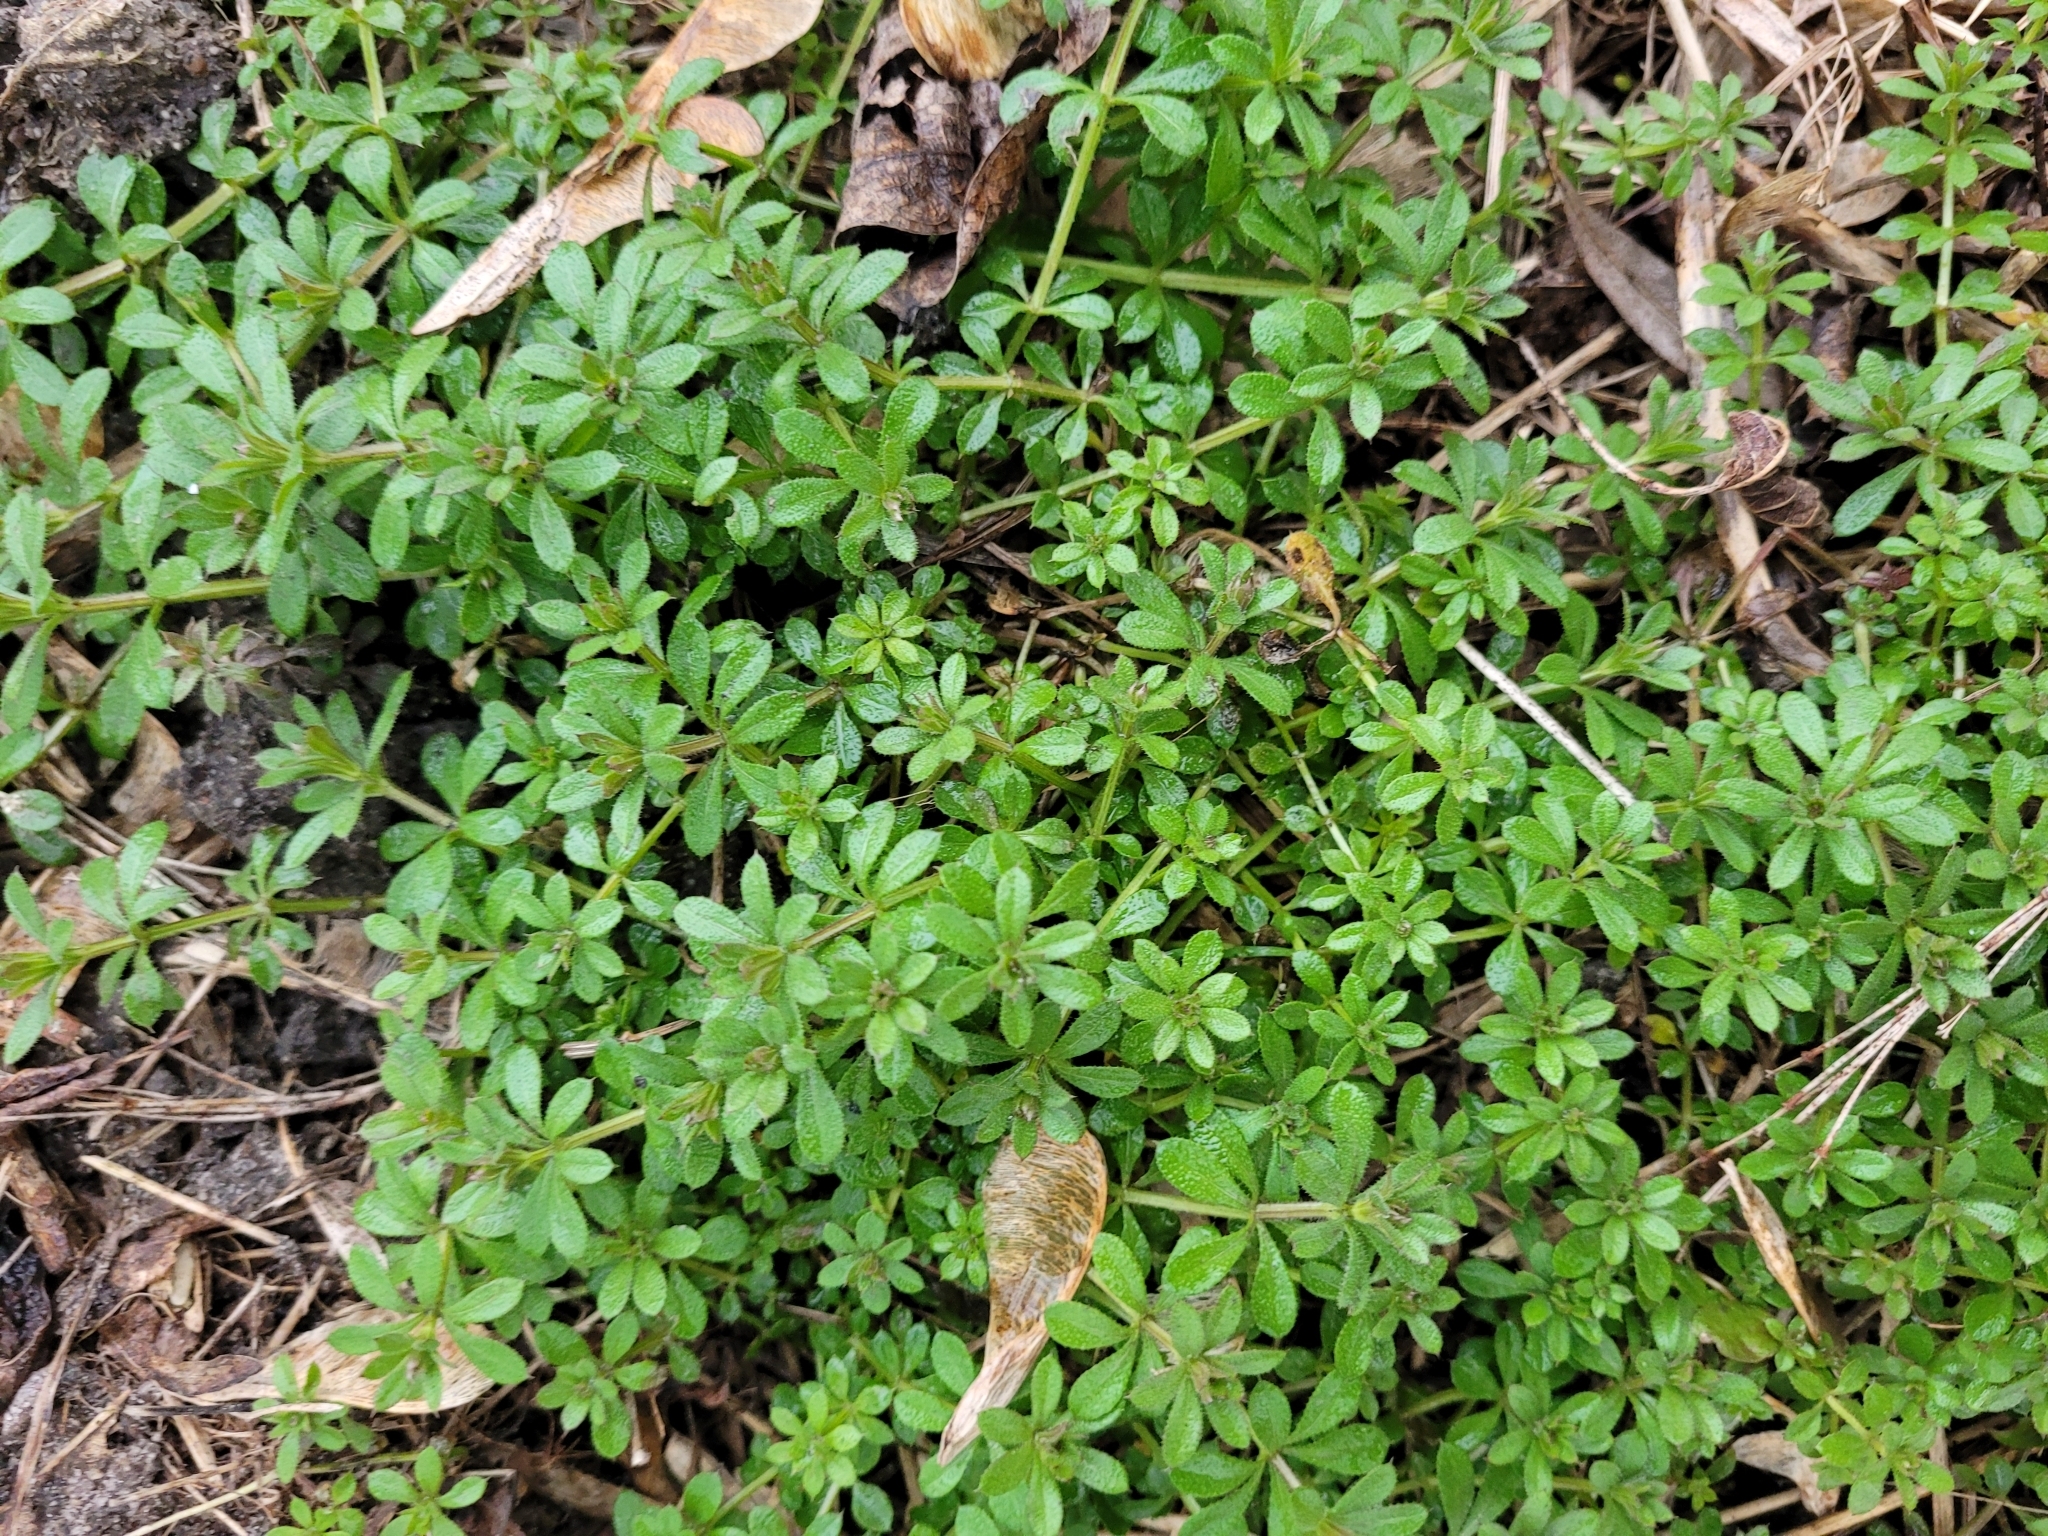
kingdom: Plantae
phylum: Tracheophyta
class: Magnoliopsida
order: Gentianales
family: Rubiaceae
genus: Galium
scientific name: Galium aparine
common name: Cleavers
